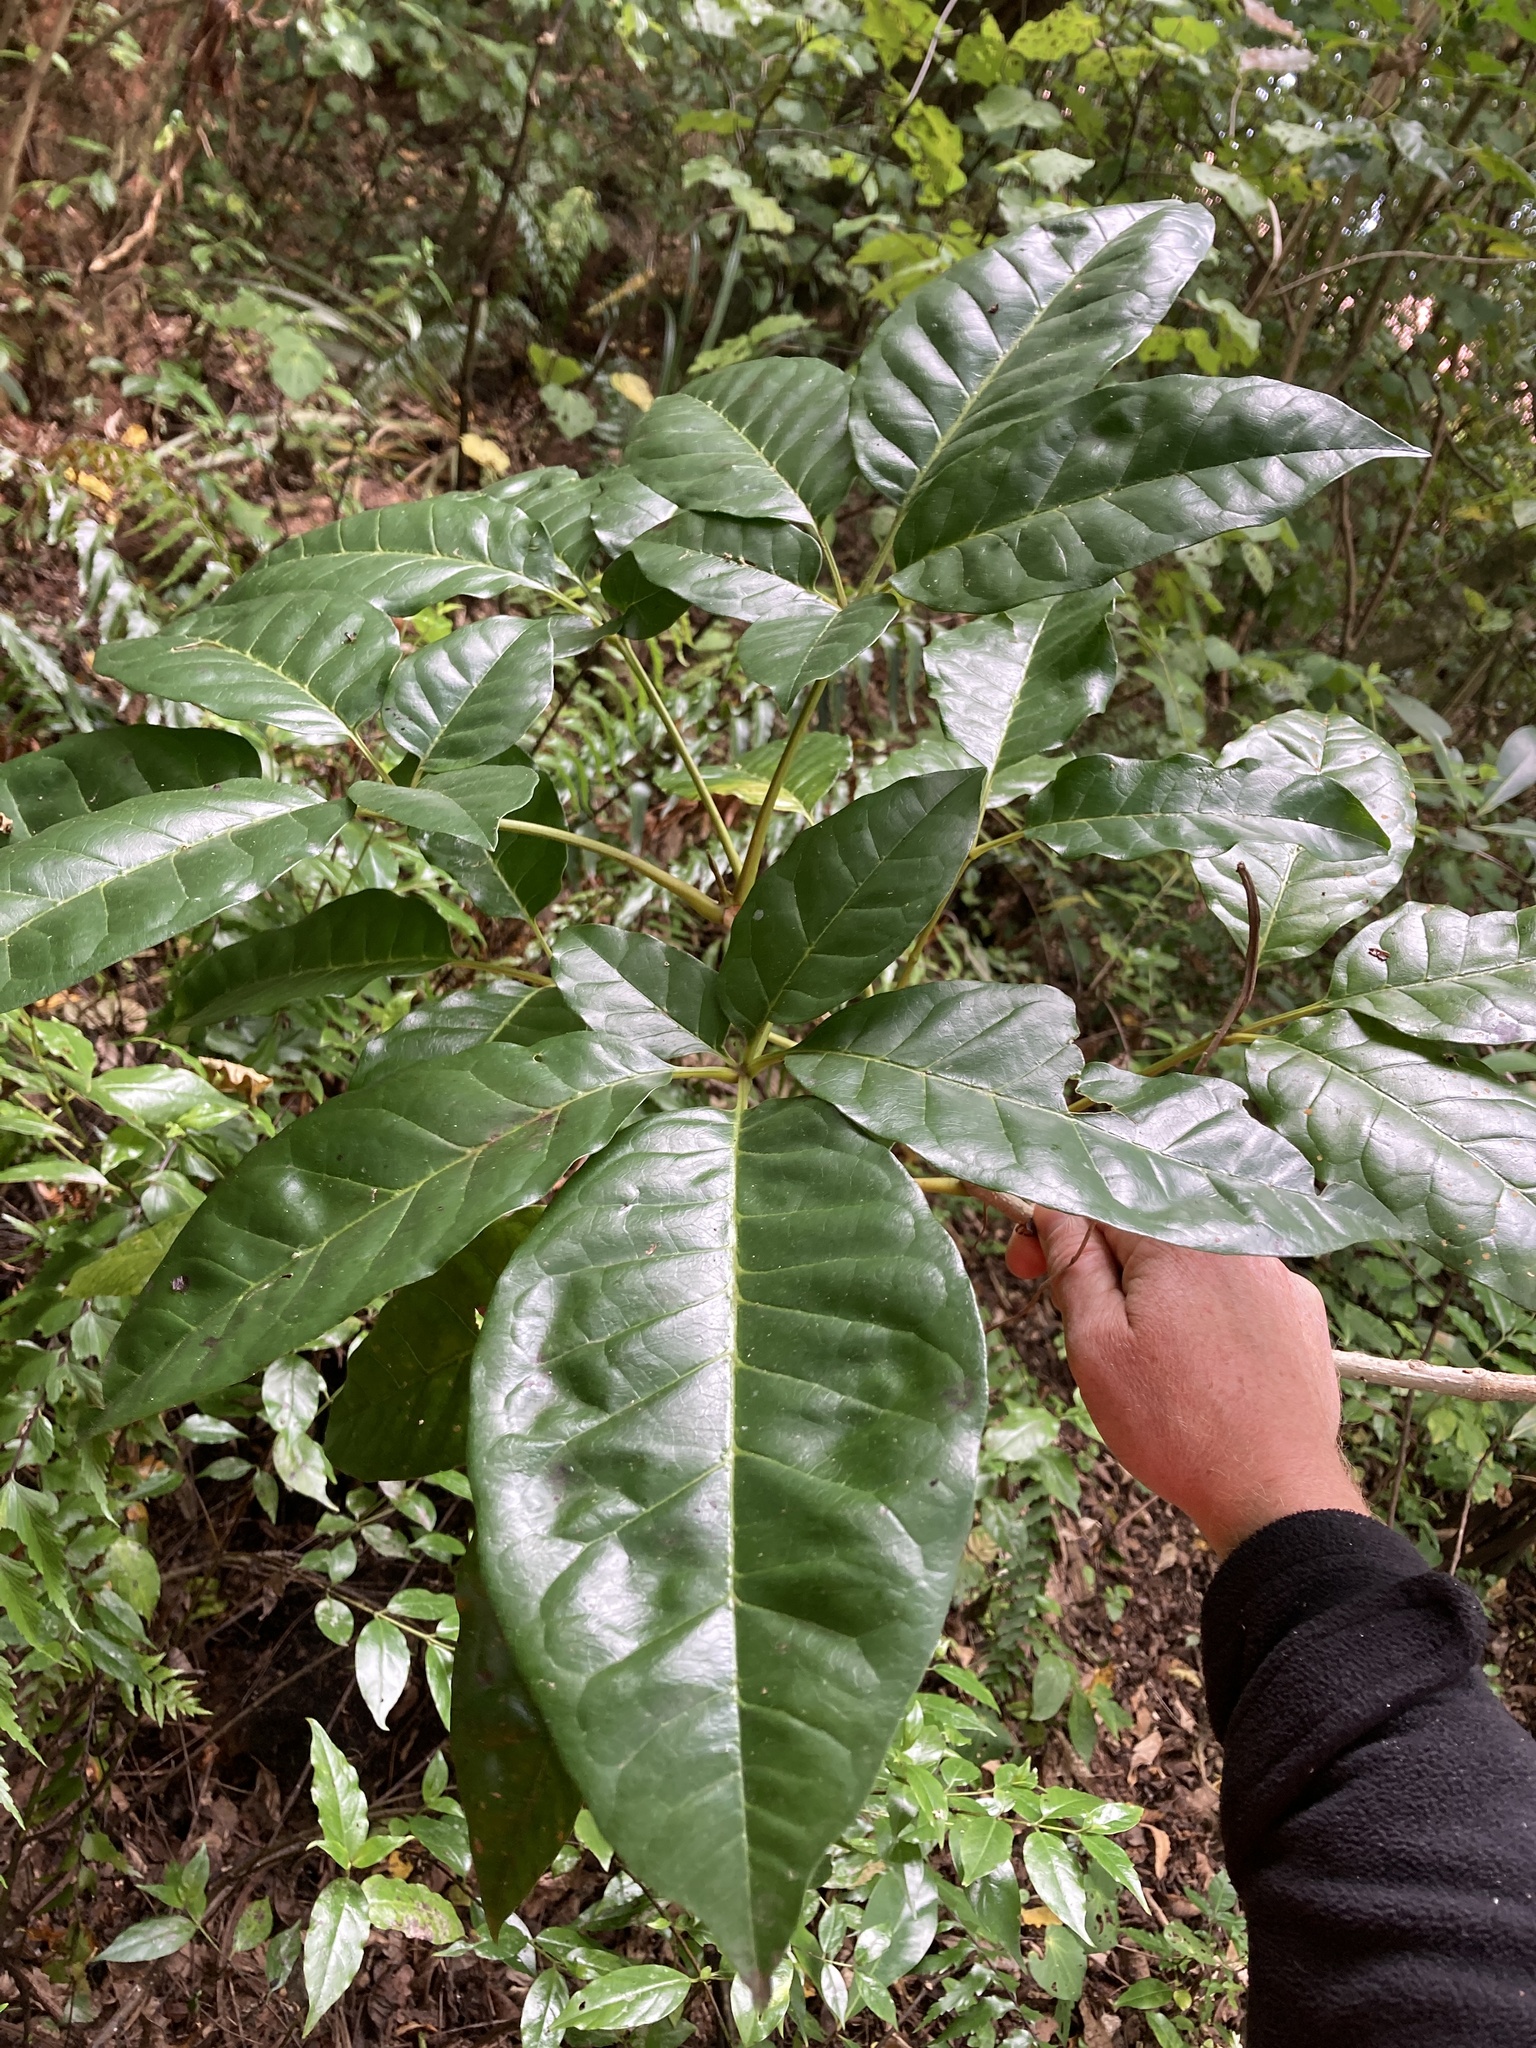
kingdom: Plantae
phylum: Tracheophyta
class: Magnoliopsida
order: Lamiales
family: Lamiaceae
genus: Vitex
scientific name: Vitex lucens
